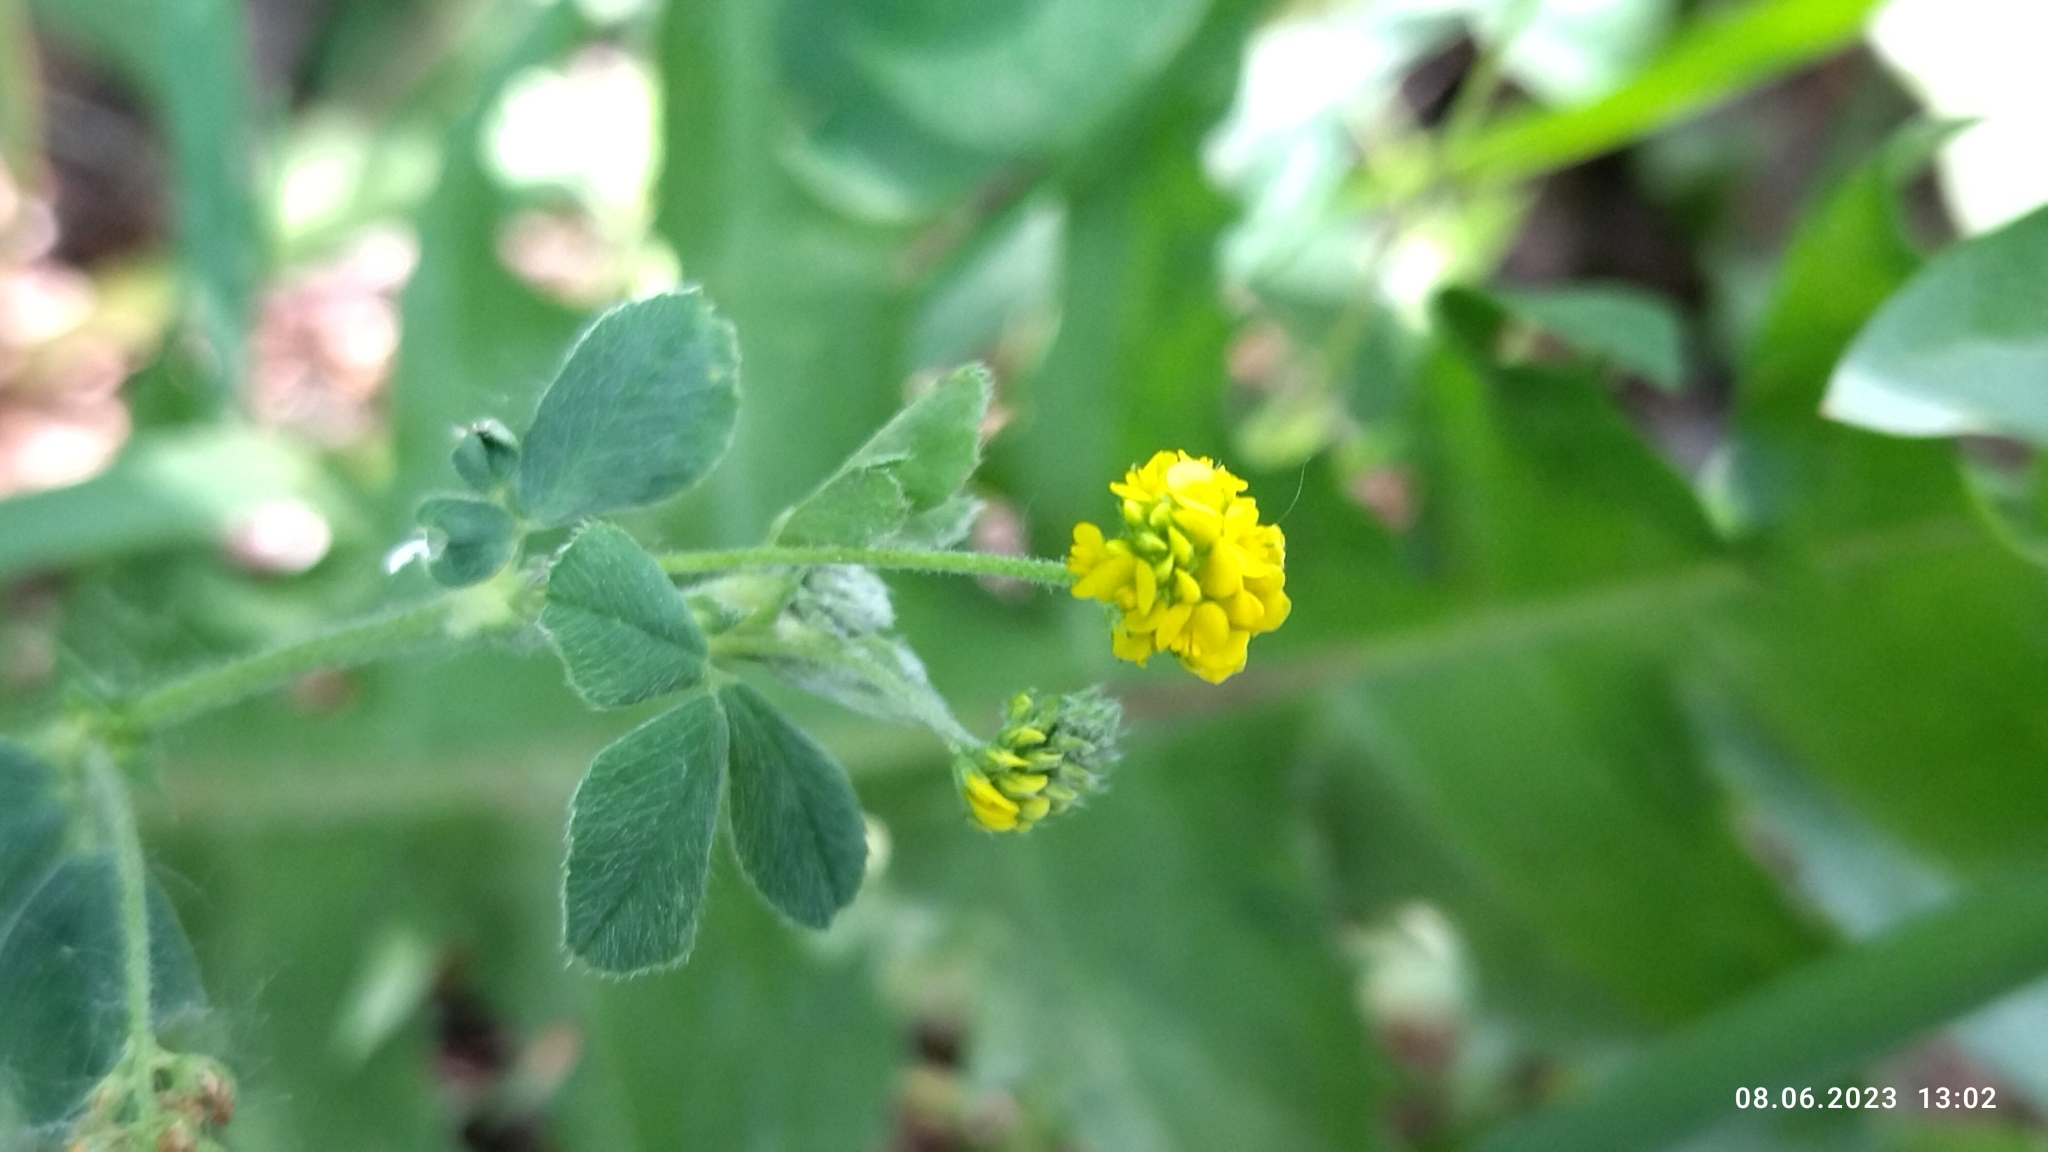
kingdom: Plantae
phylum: Tracheophyta
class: Magnoliopsida
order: Fabales
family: Fabaceae
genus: Medicago
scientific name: Medicago lupulina
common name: Black medick
